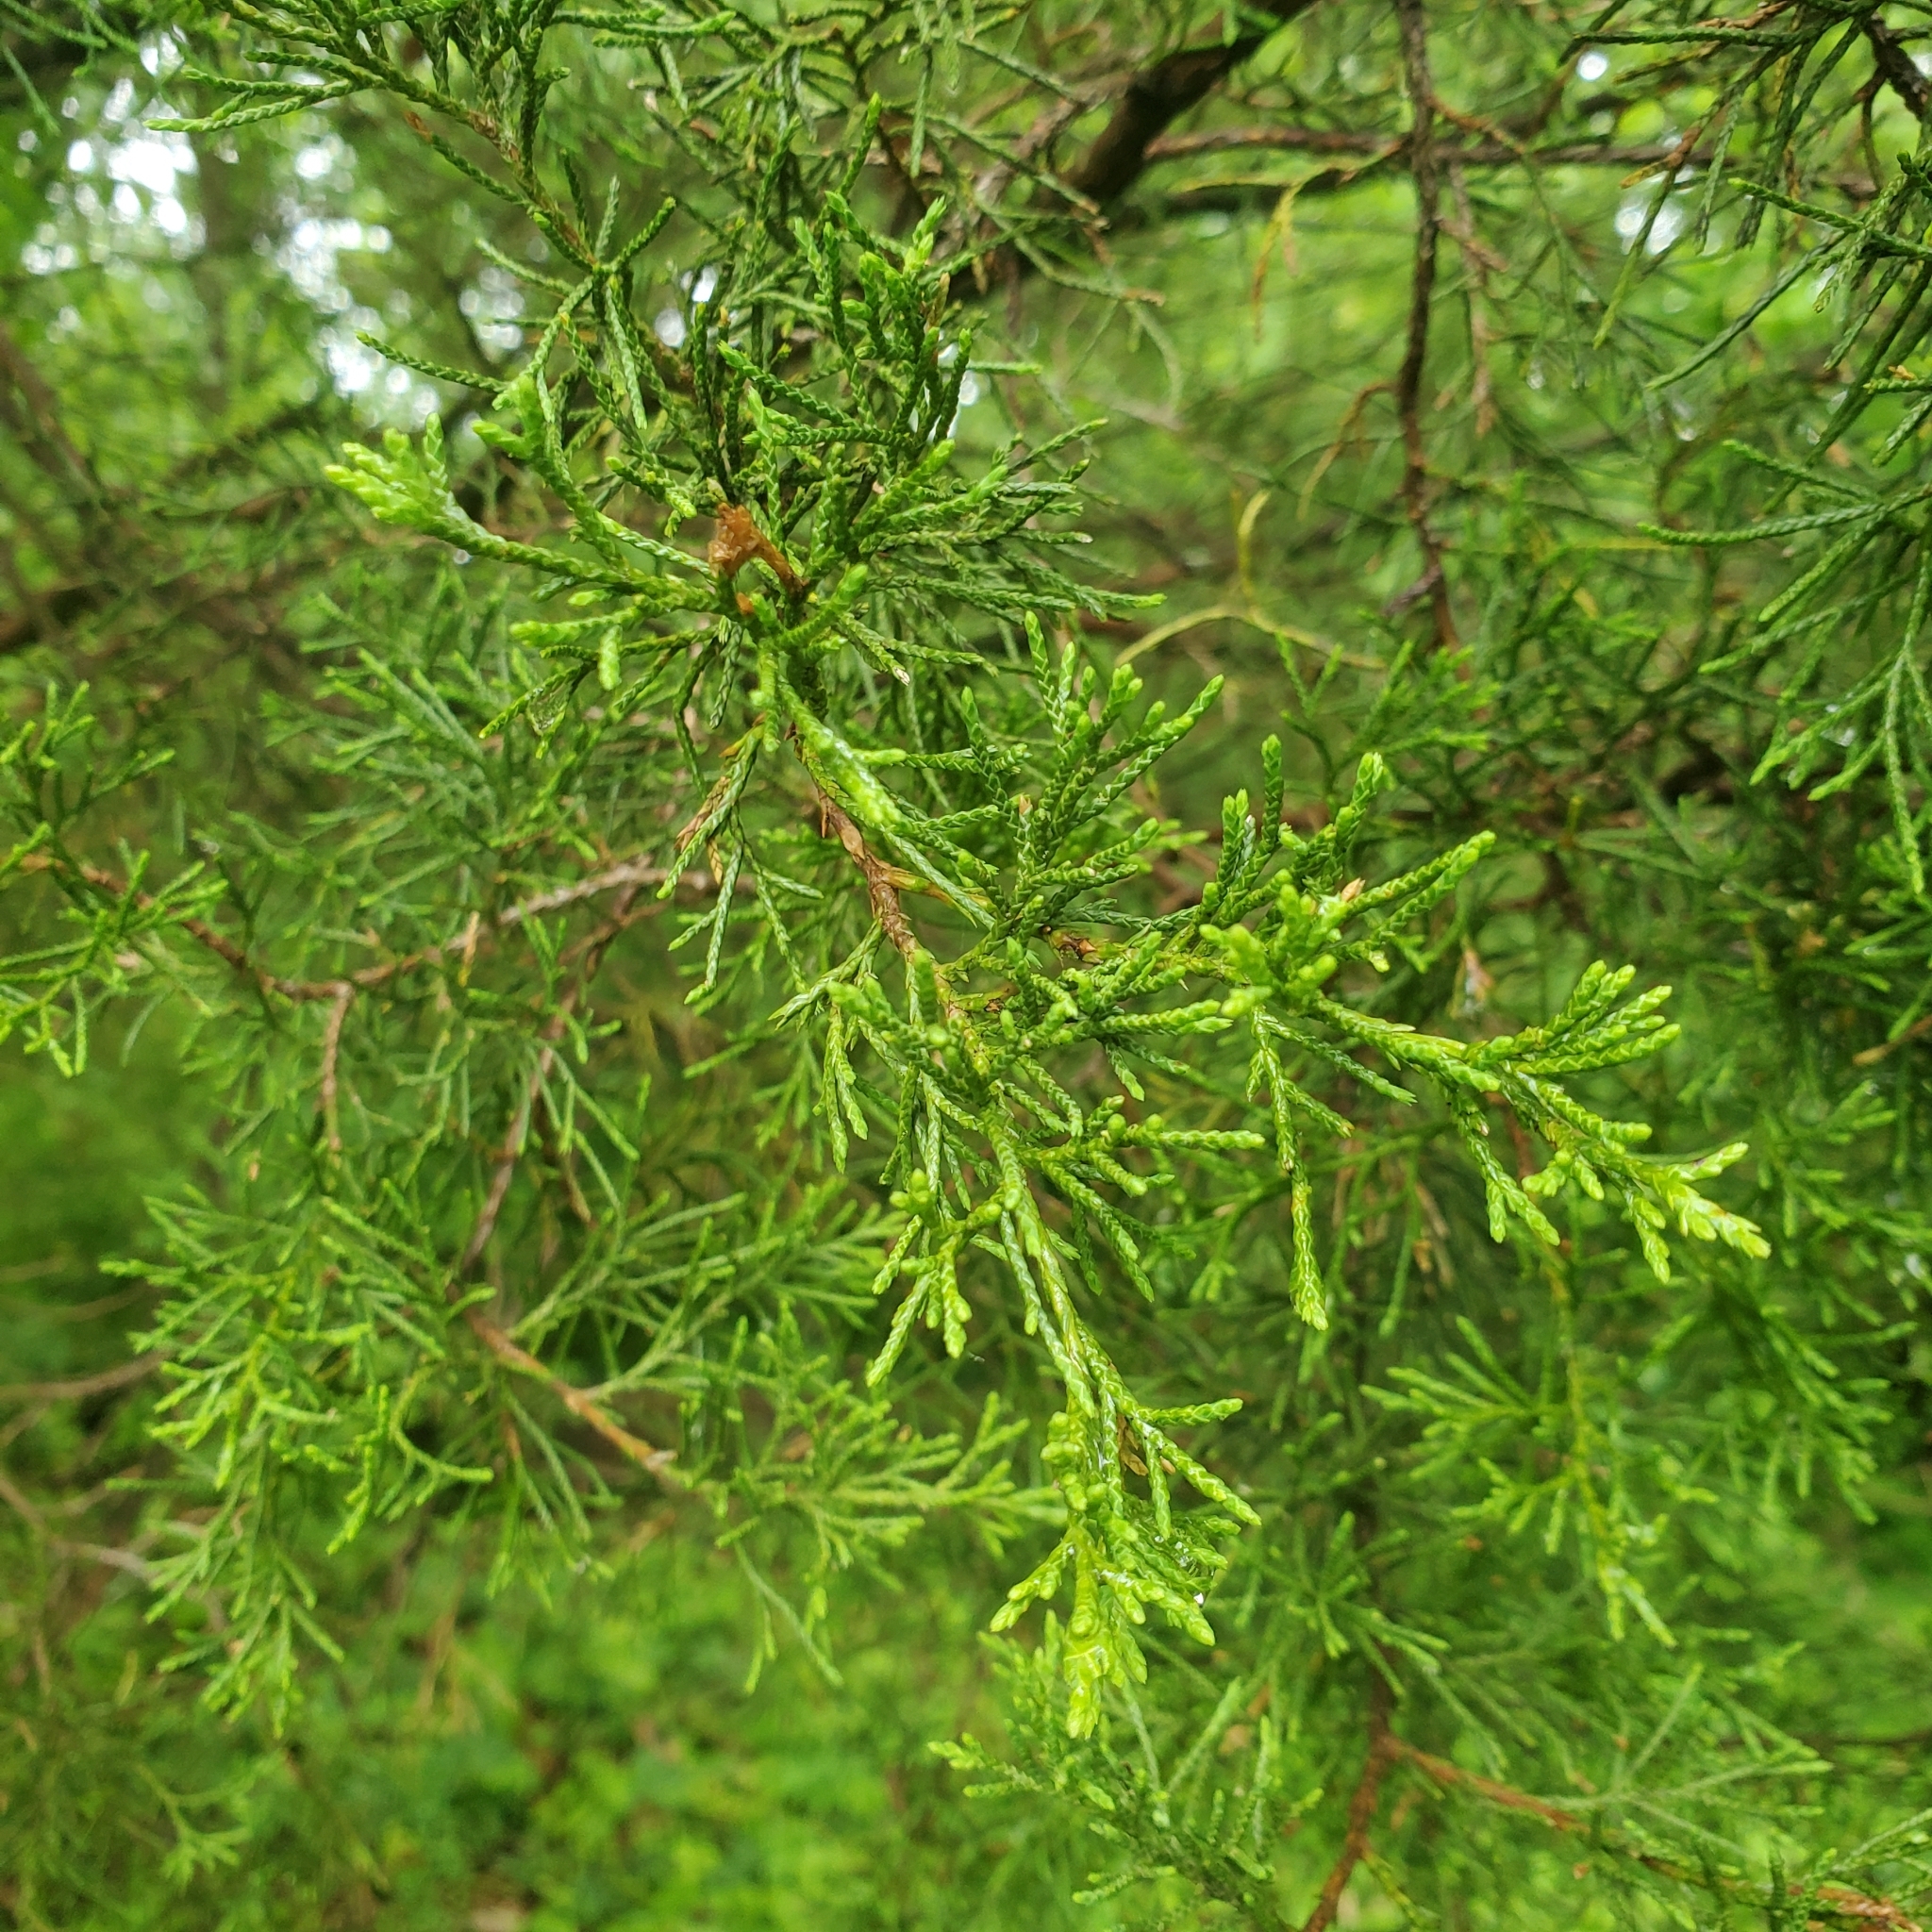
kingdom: Plantae
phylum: Tracheophyta
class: Pinopsida
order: Pinales
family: Cupressaceae
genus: Juniperus
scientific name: Juniperus virginiana
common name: Red juniper
